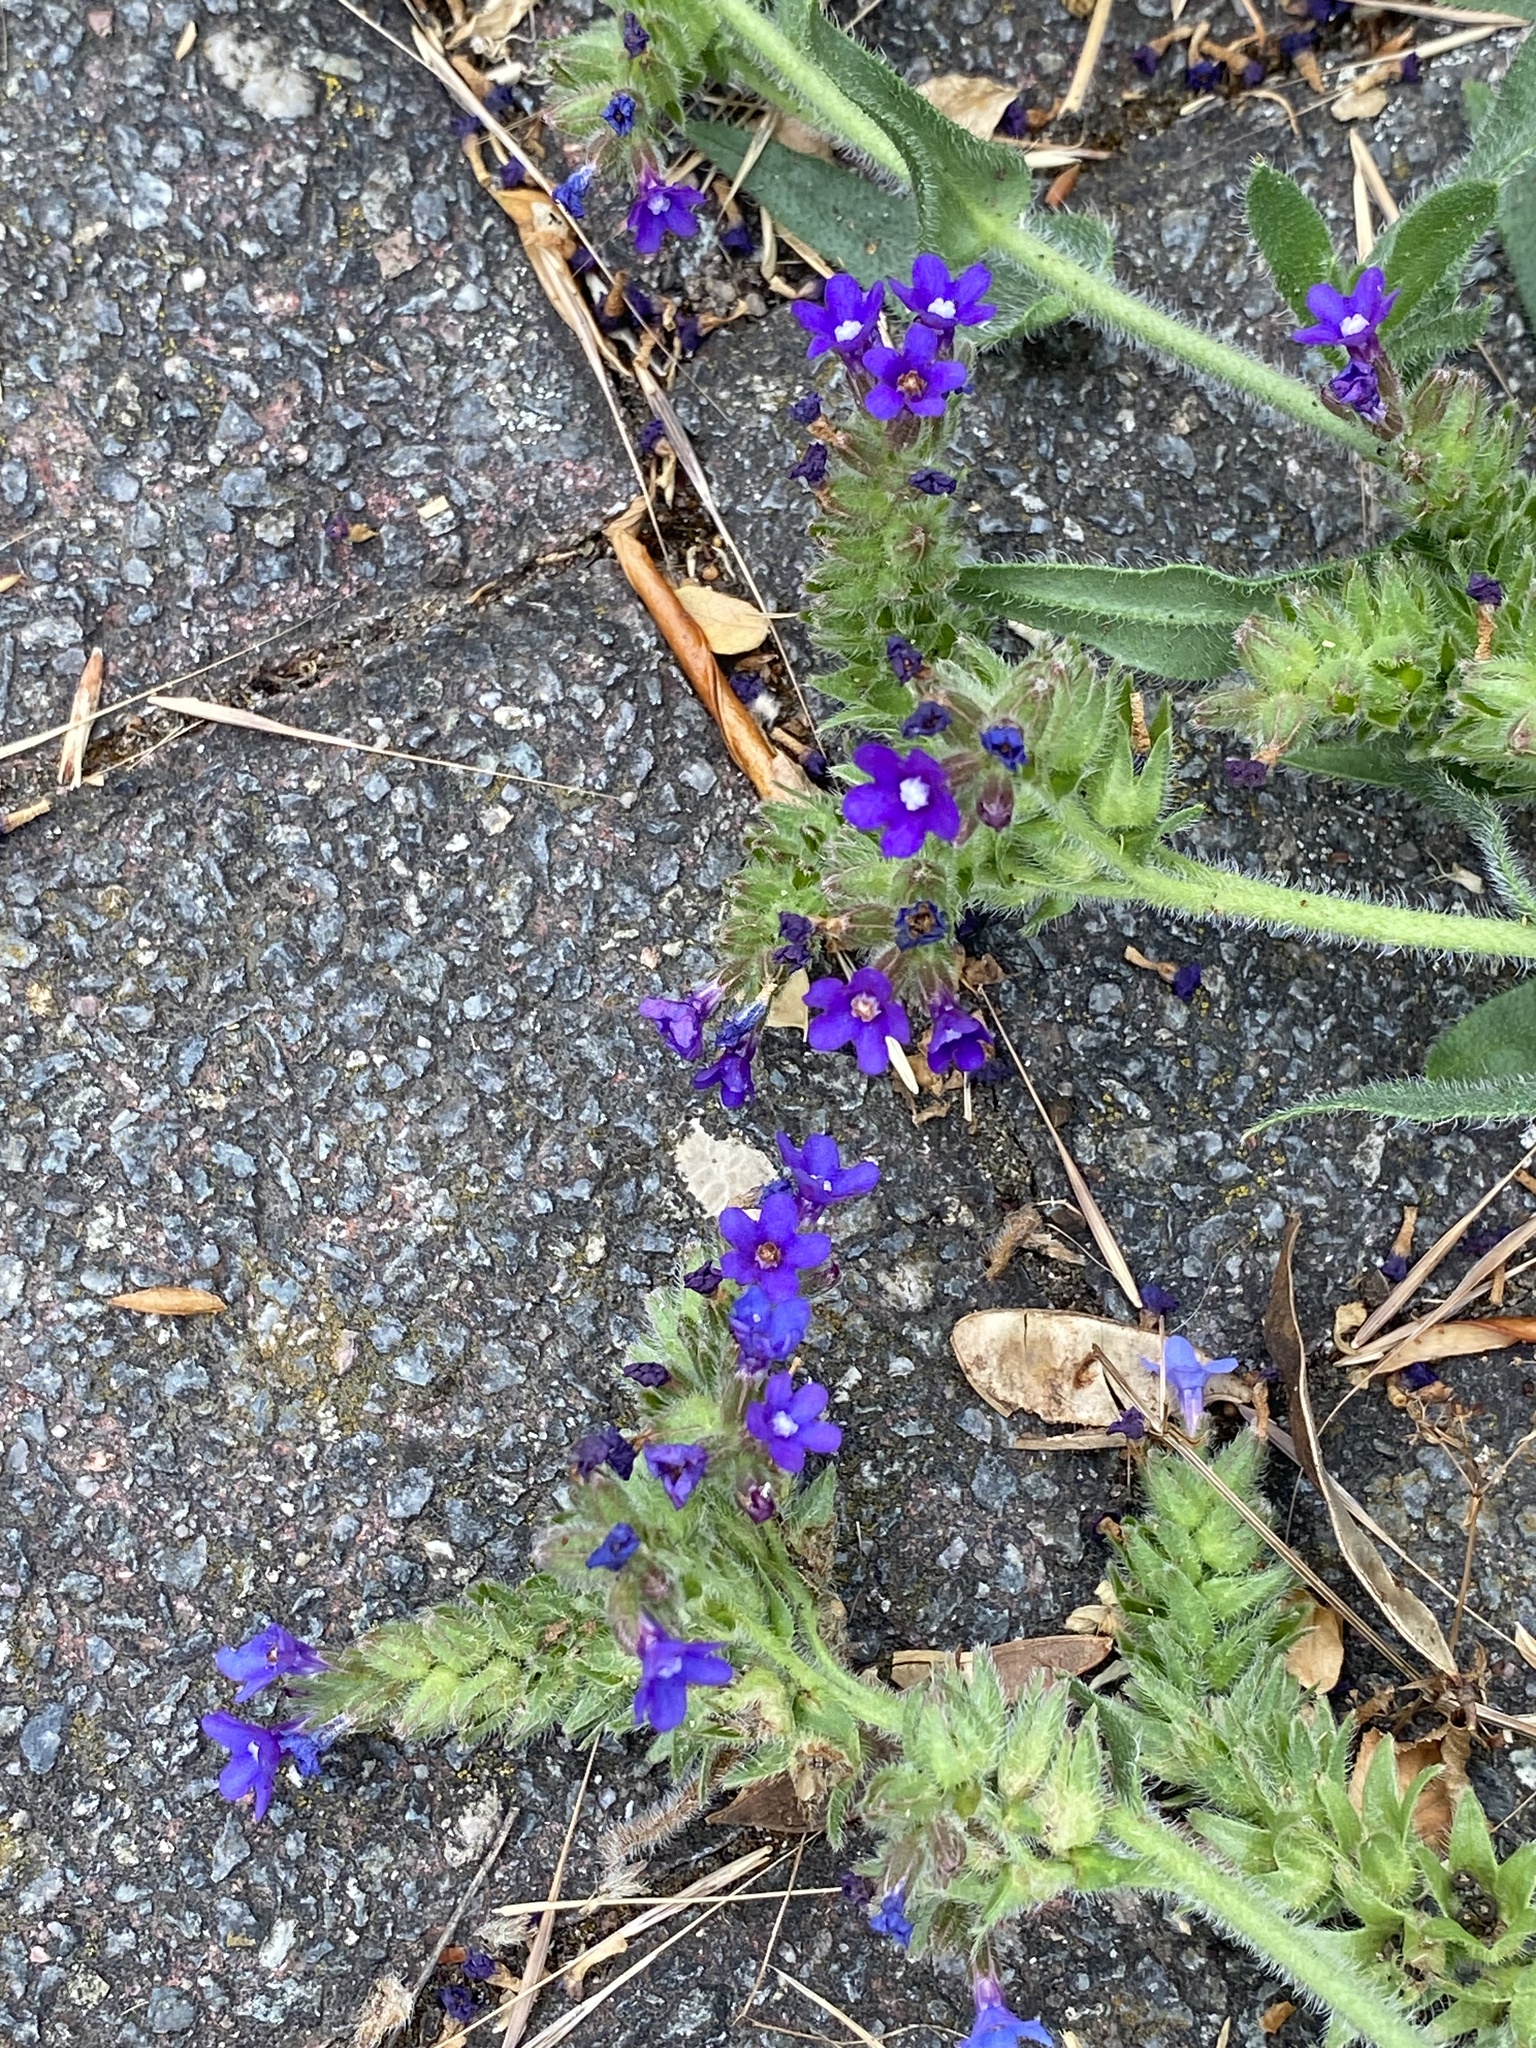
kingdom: Plantae
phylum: Tracheophyta
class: Magnoliopsida
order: Boraginales
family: Boraginaceae
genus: Anchusa
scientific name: Anchusa officinalis
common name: Alkanet
